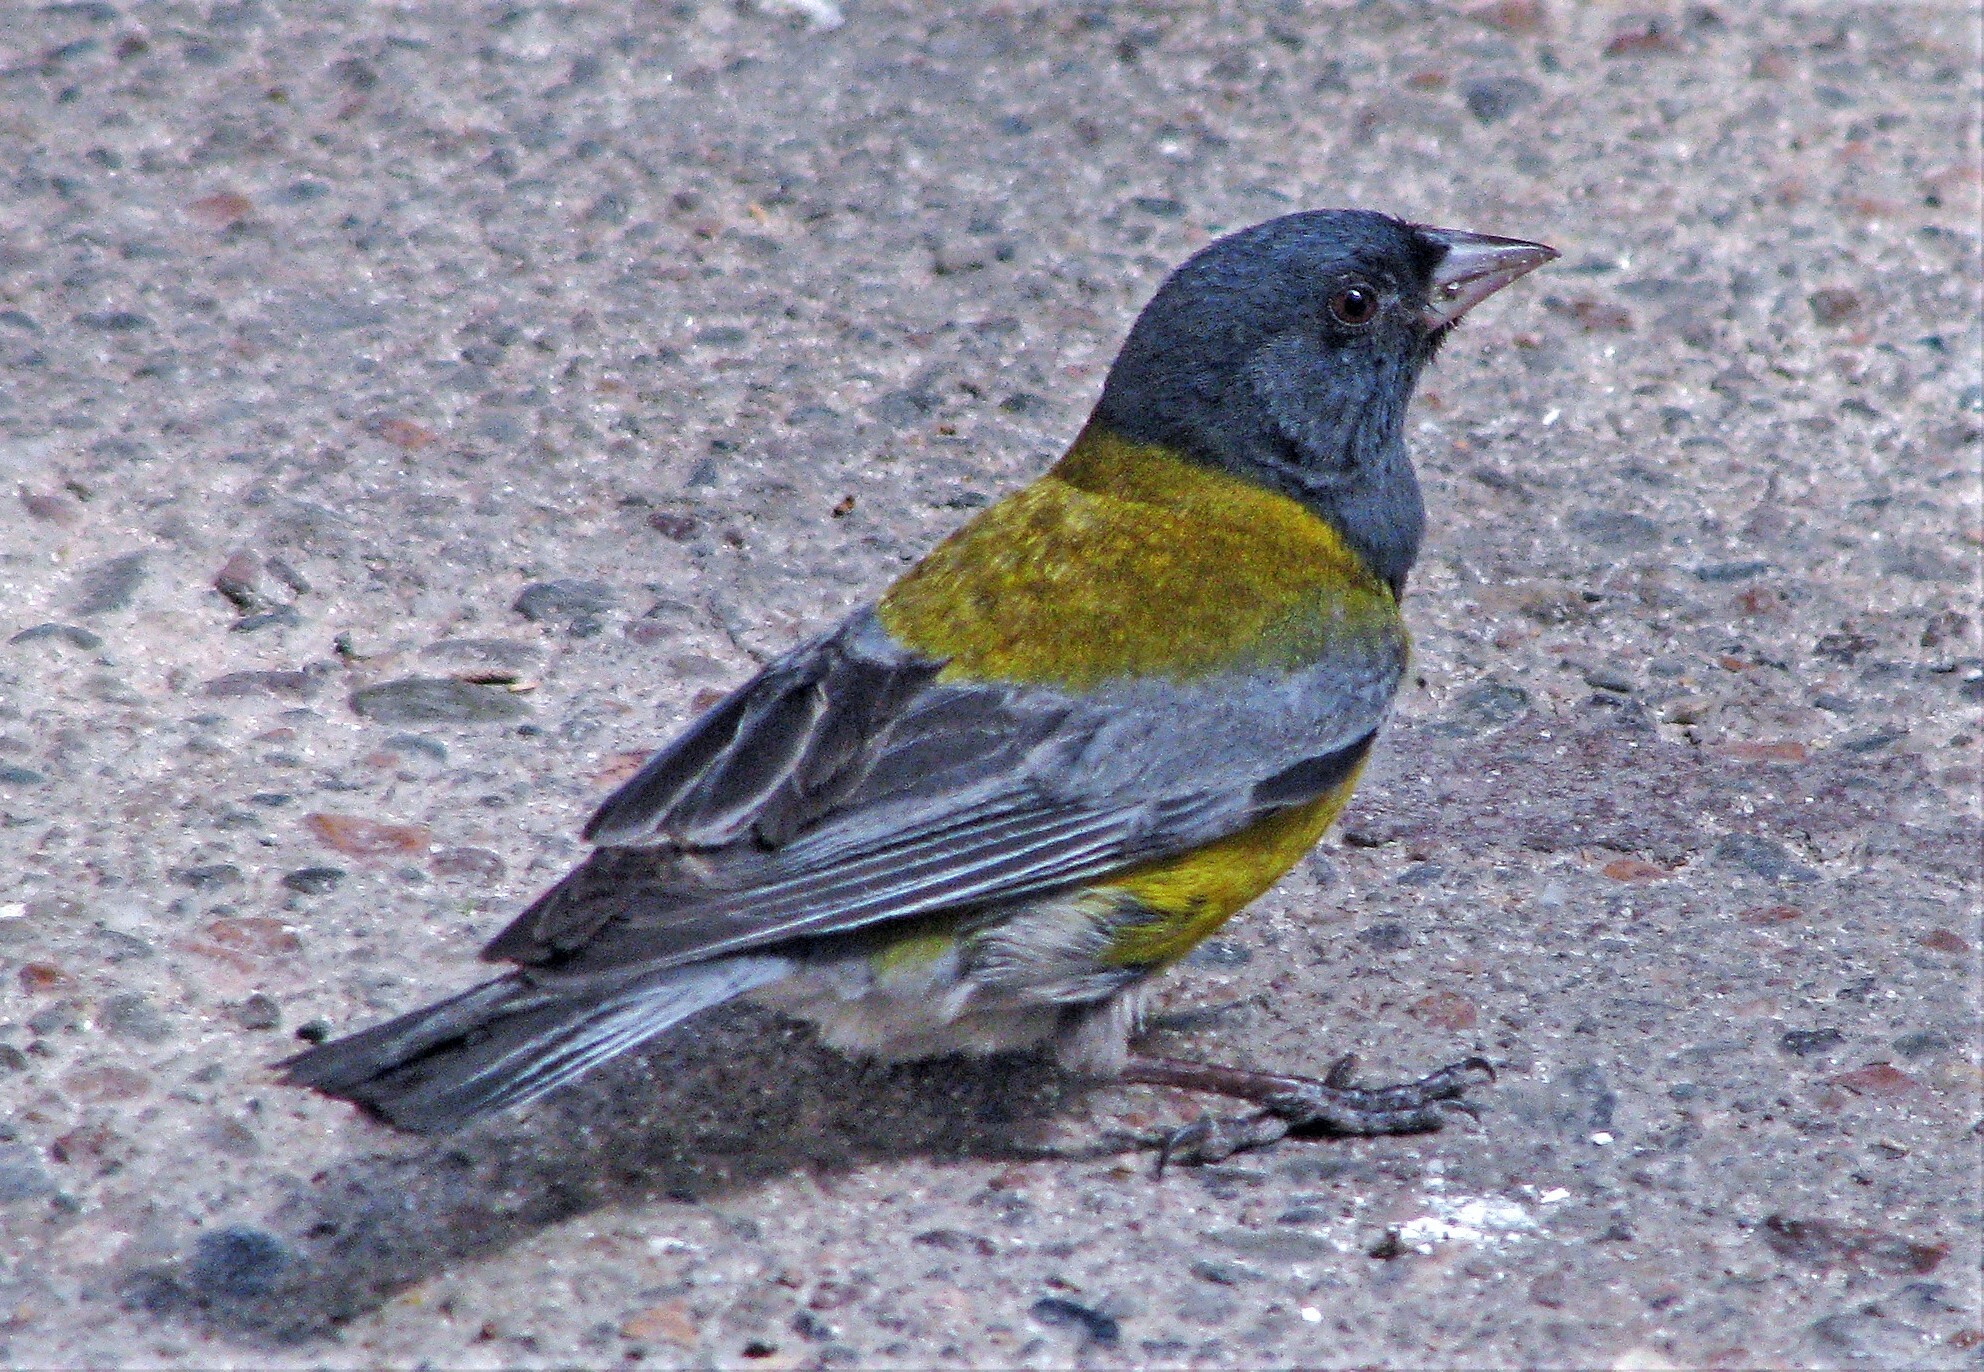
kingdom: Animalia
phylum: Chordata
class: Aves
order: Passeriformes
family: Thraupidae
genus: Phrygilus
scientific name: Phrygilus gayi
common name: Grey-hooded sierra finch
